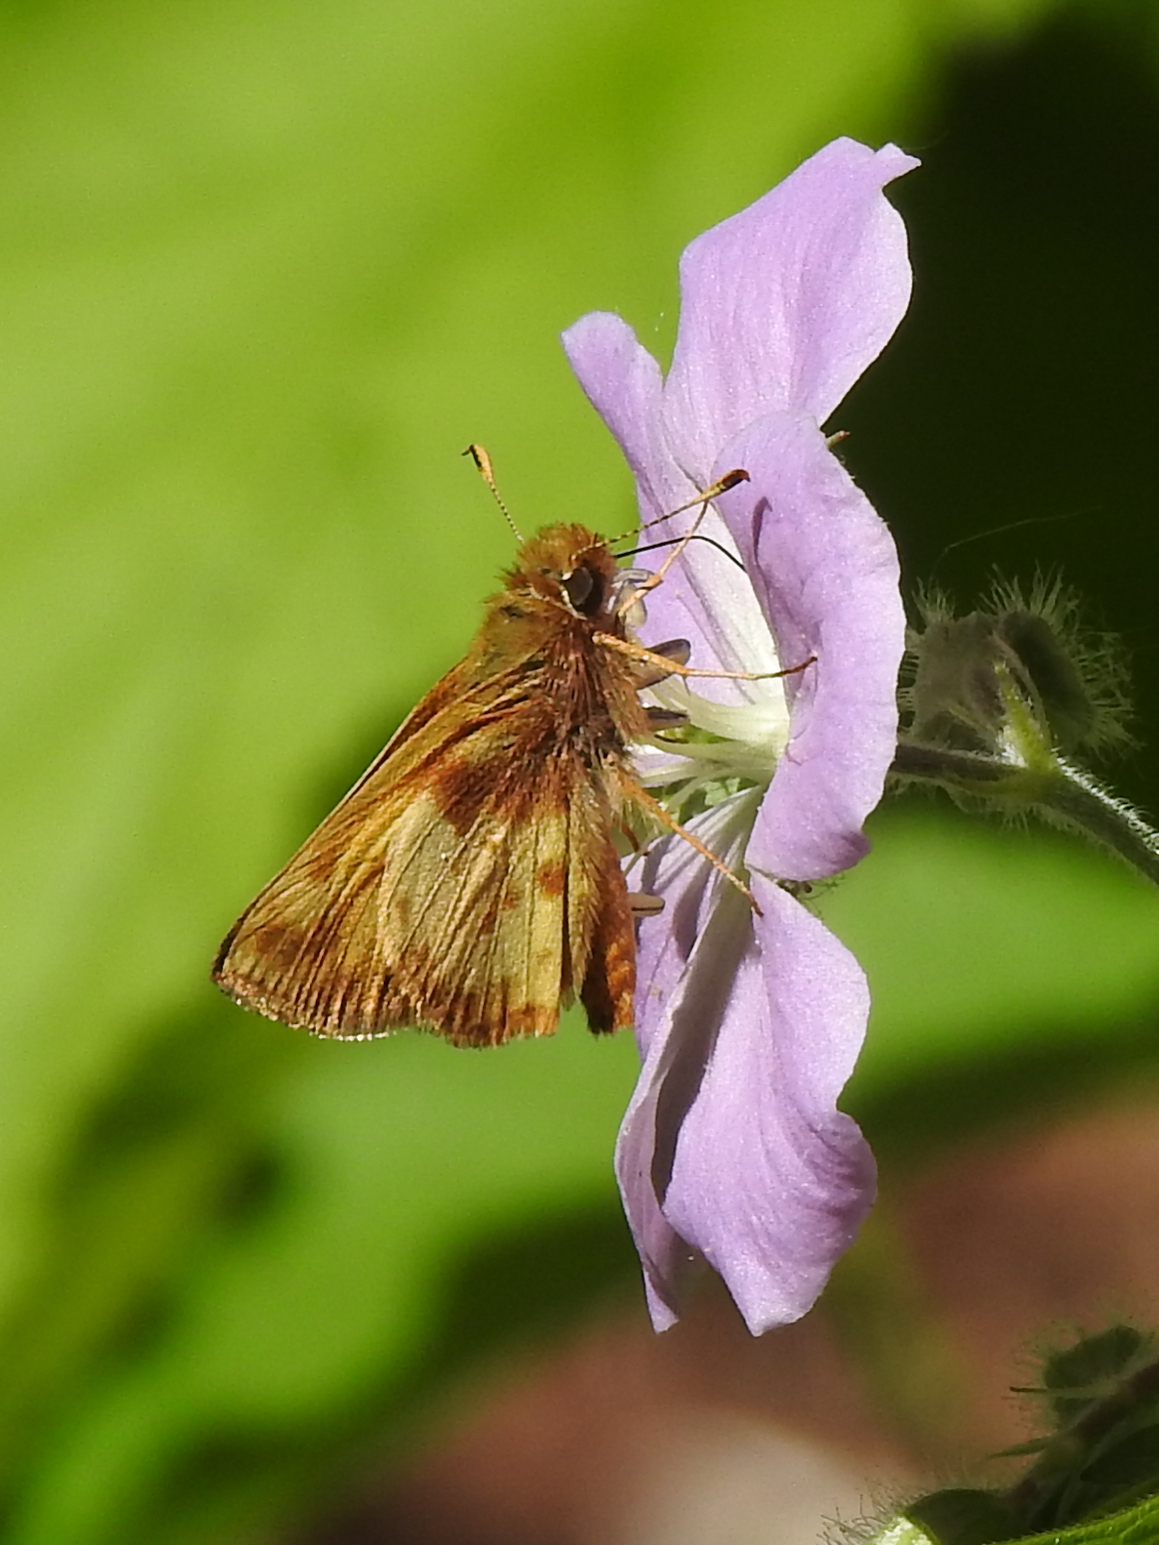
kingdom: Animalia
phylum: Arthropoda
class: Insecta
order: Lepidoptera
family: Hesperiidae
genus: Lon
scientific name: Lon zabulon
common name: Zabulon skipper
